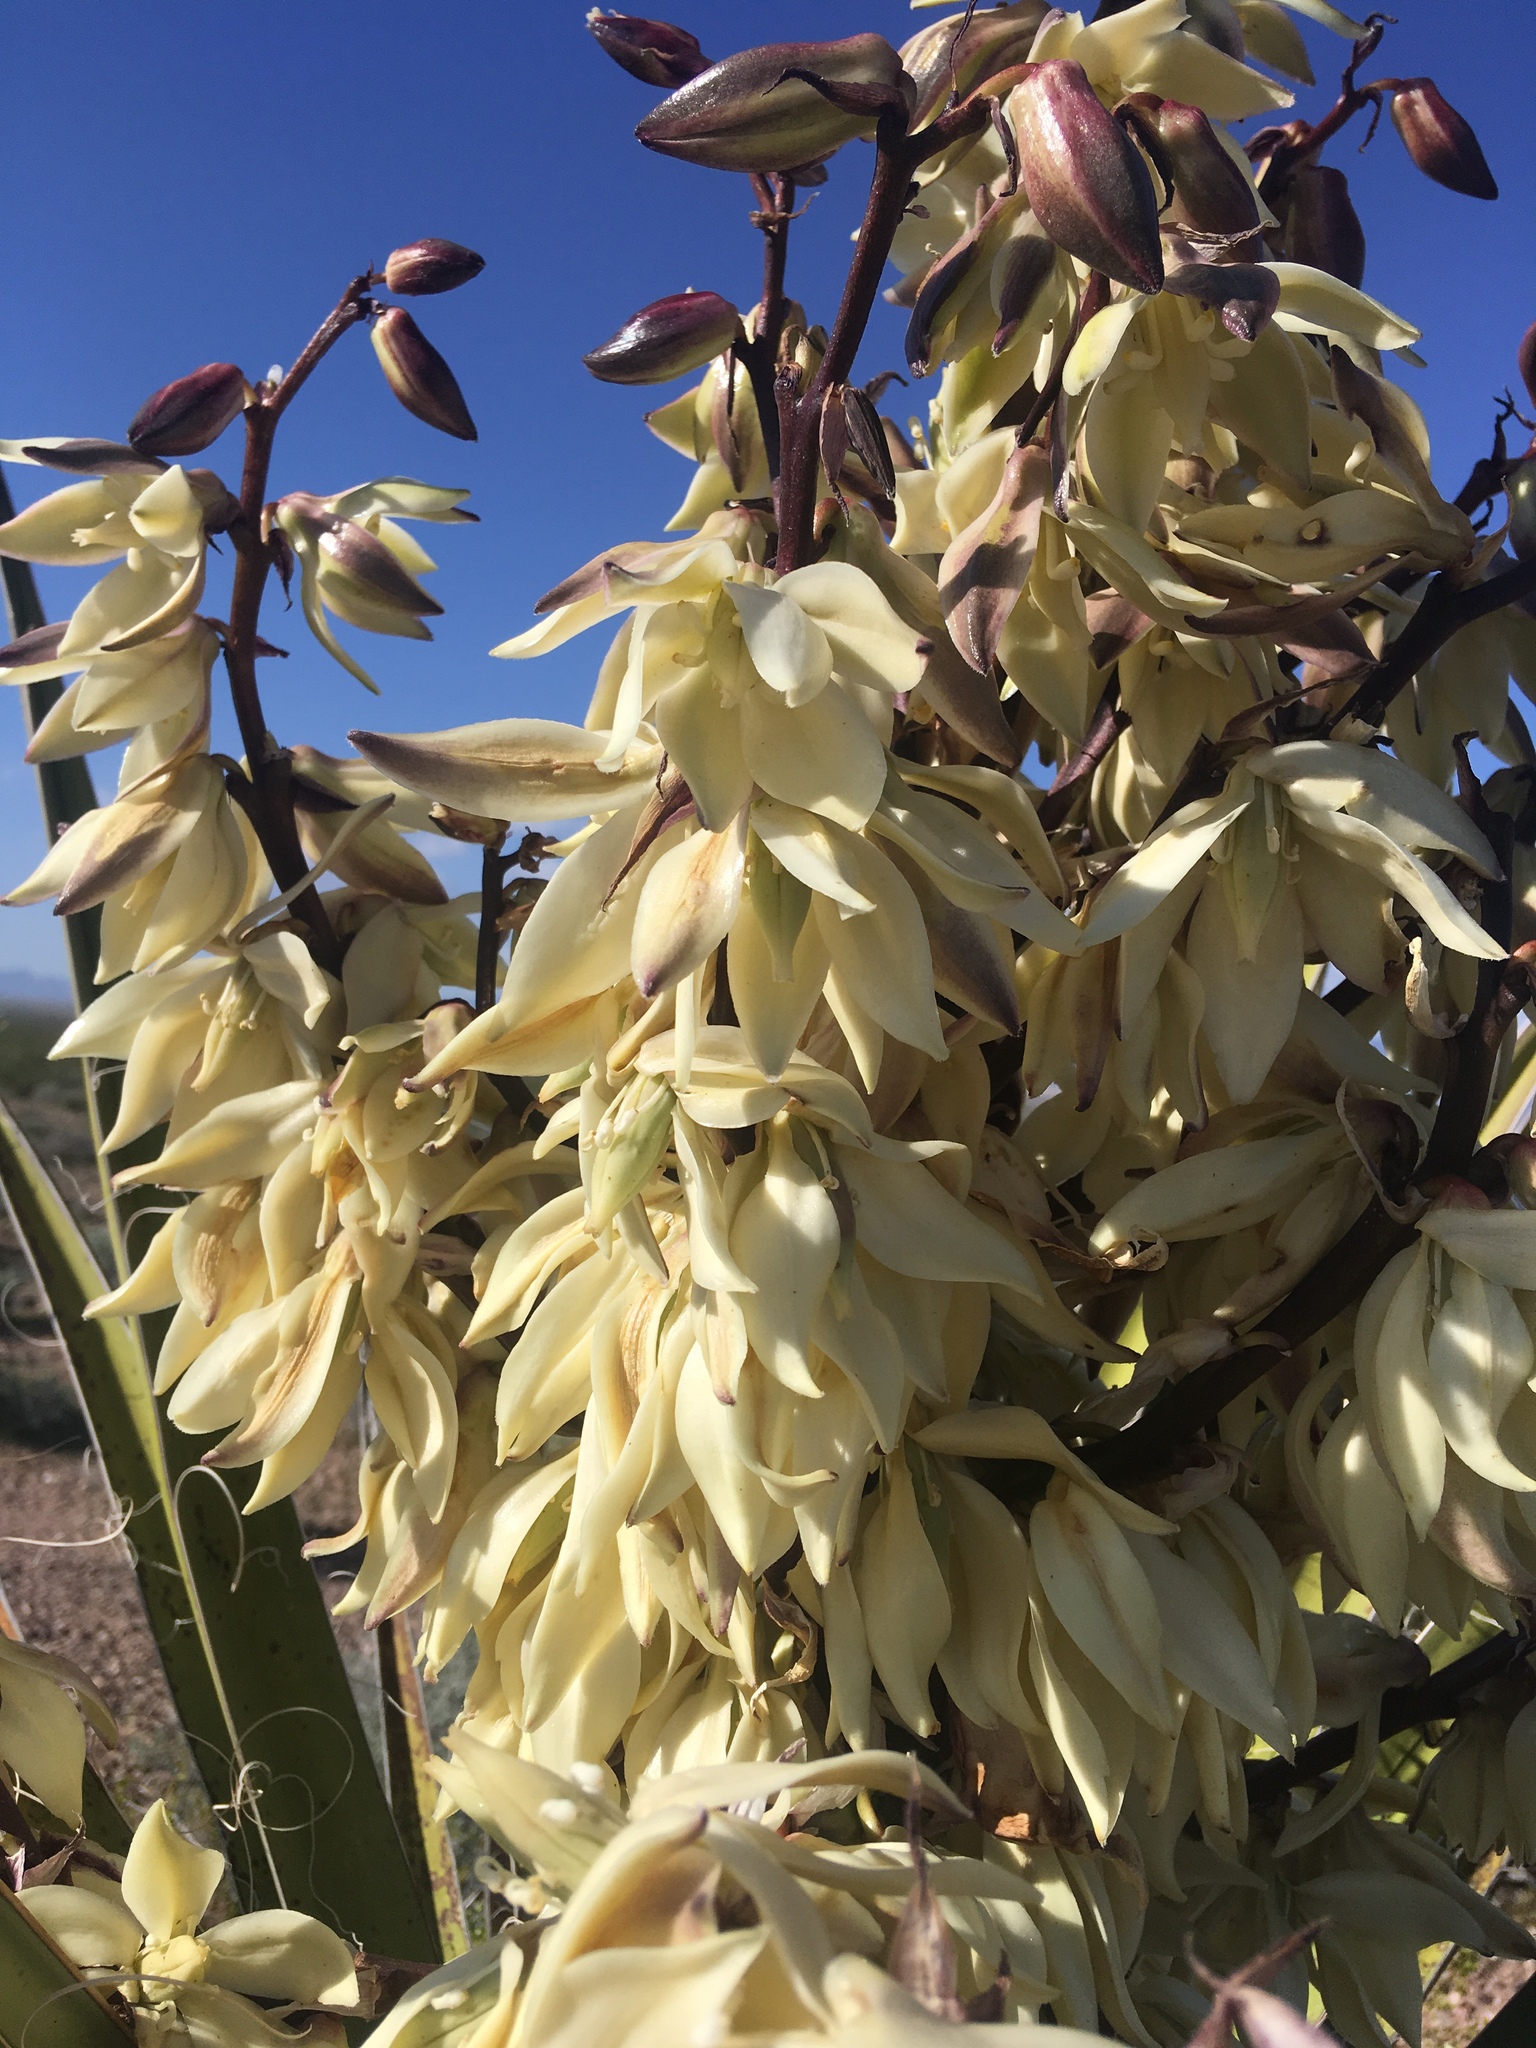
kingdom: Plantae
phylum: Tracheophyta
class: Liliopsida
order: Asparagales
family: Asparagaceae
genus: Yucca
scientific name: Yucca schidigera
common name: Mojave yucca
